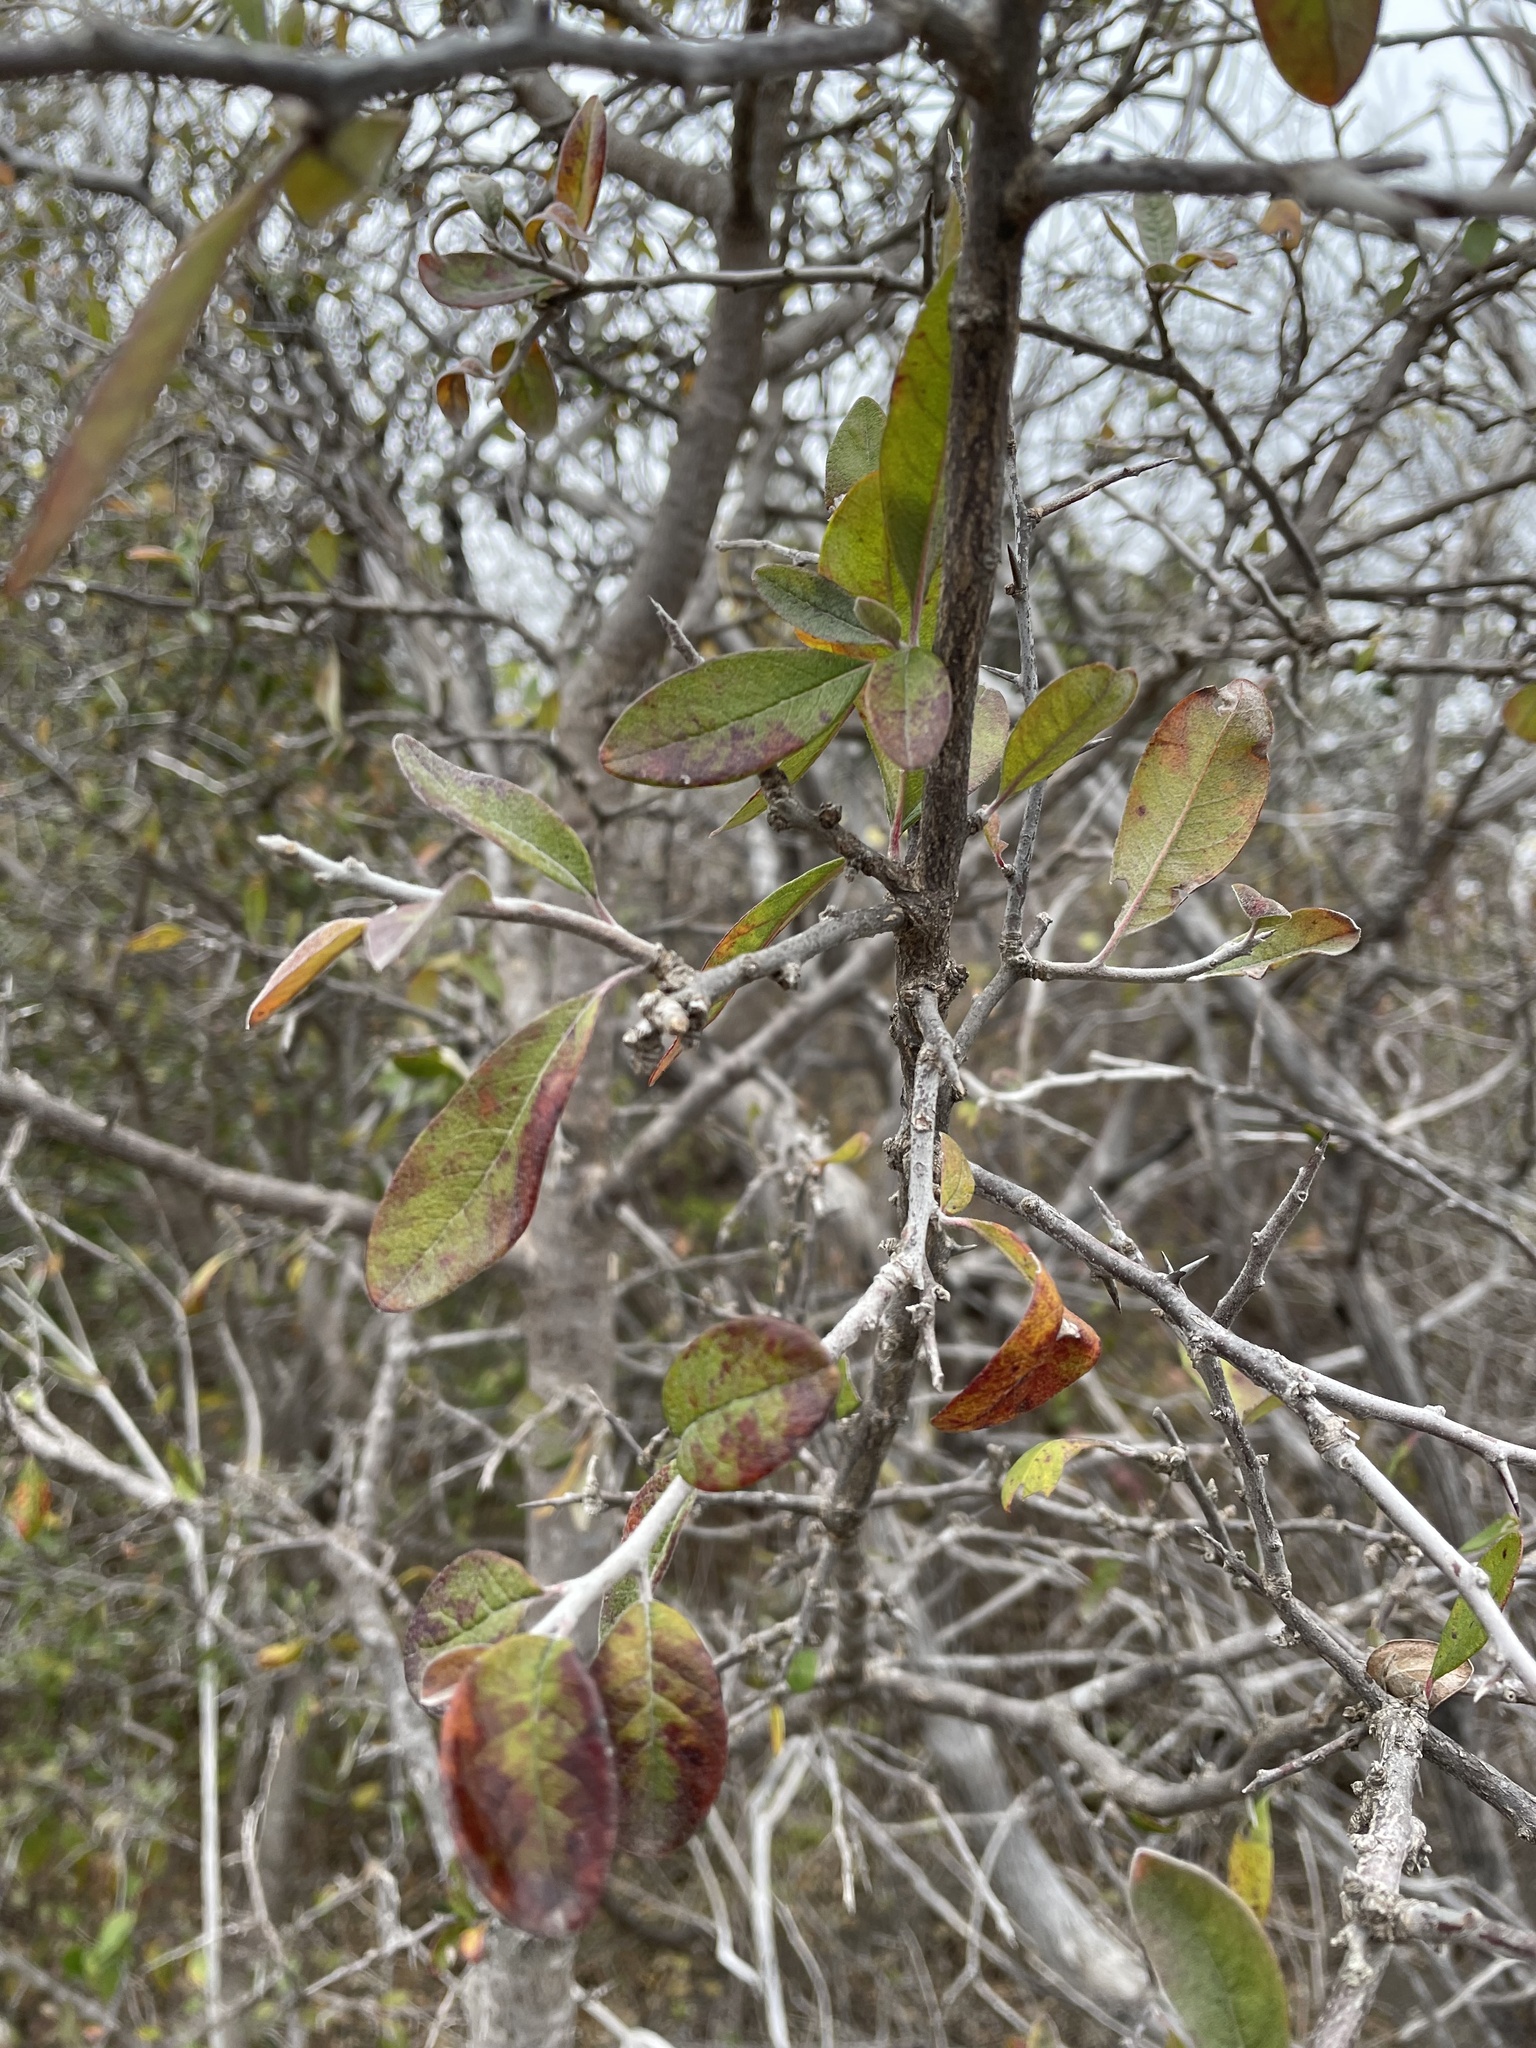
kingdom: Plantae
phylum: Tracheophyta
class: Magnoliopsida
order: Ericales
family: Sapotaceae
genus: Sideroxylon
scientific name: Sideroxylon lanuginosum
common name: Chittamwood
